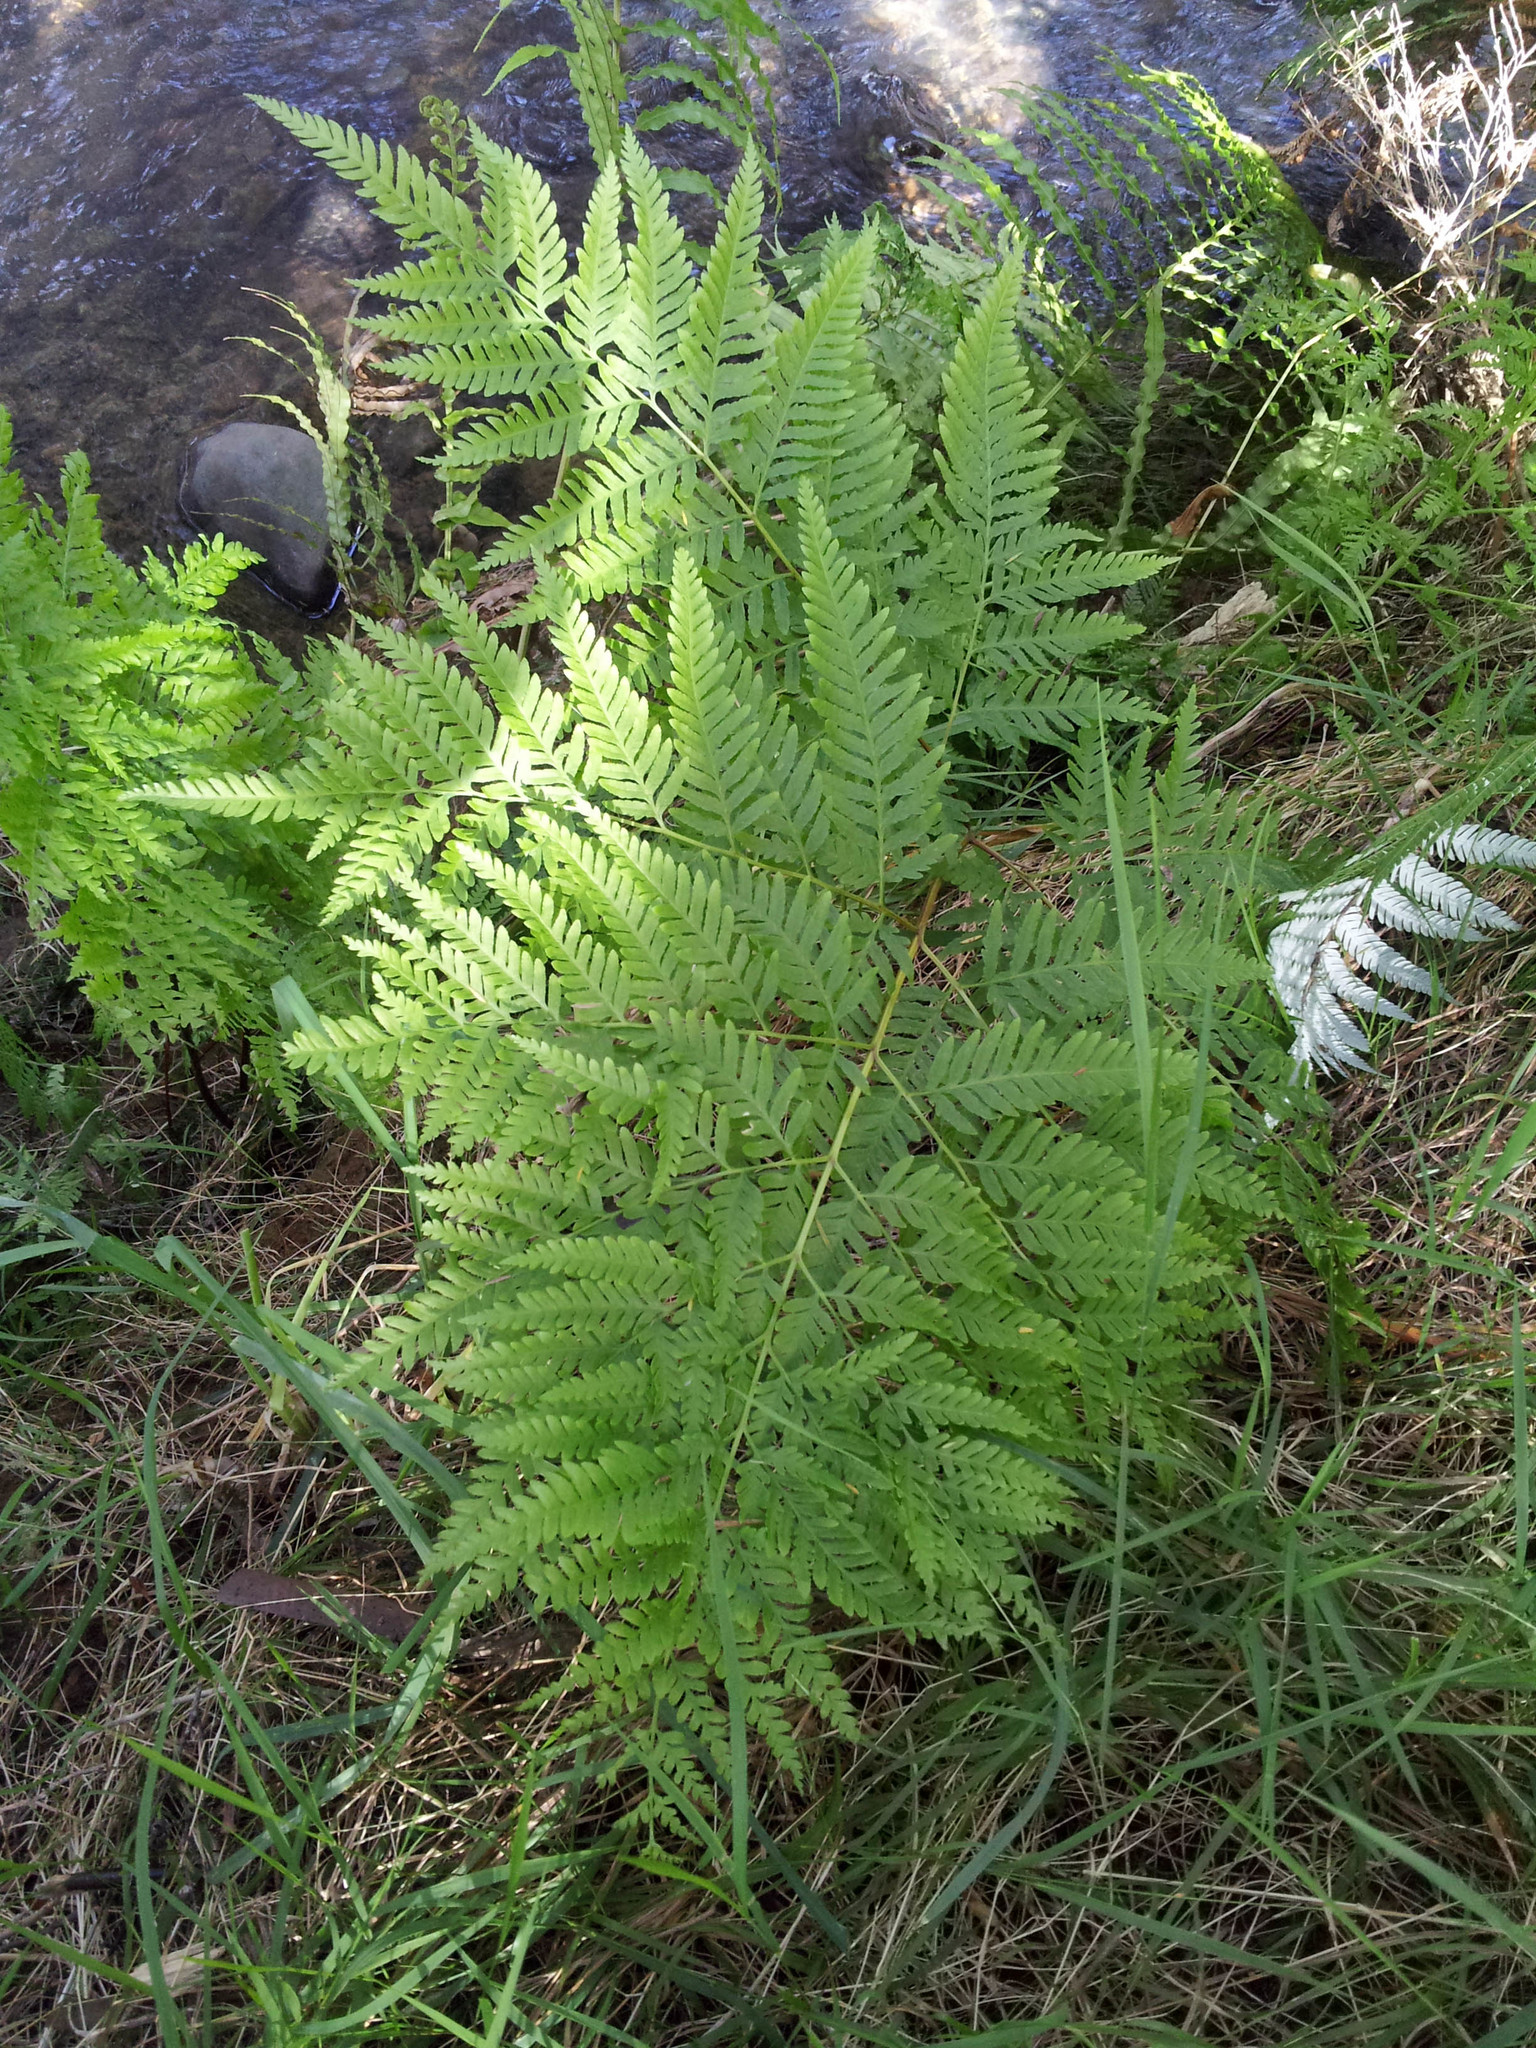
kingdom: Plantae
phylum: Tracheophyta
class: Polypodiopsida
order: Polypodiales
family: Pteridaceae
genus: Pteris
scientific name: Pteris tremula
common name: Australian brake
